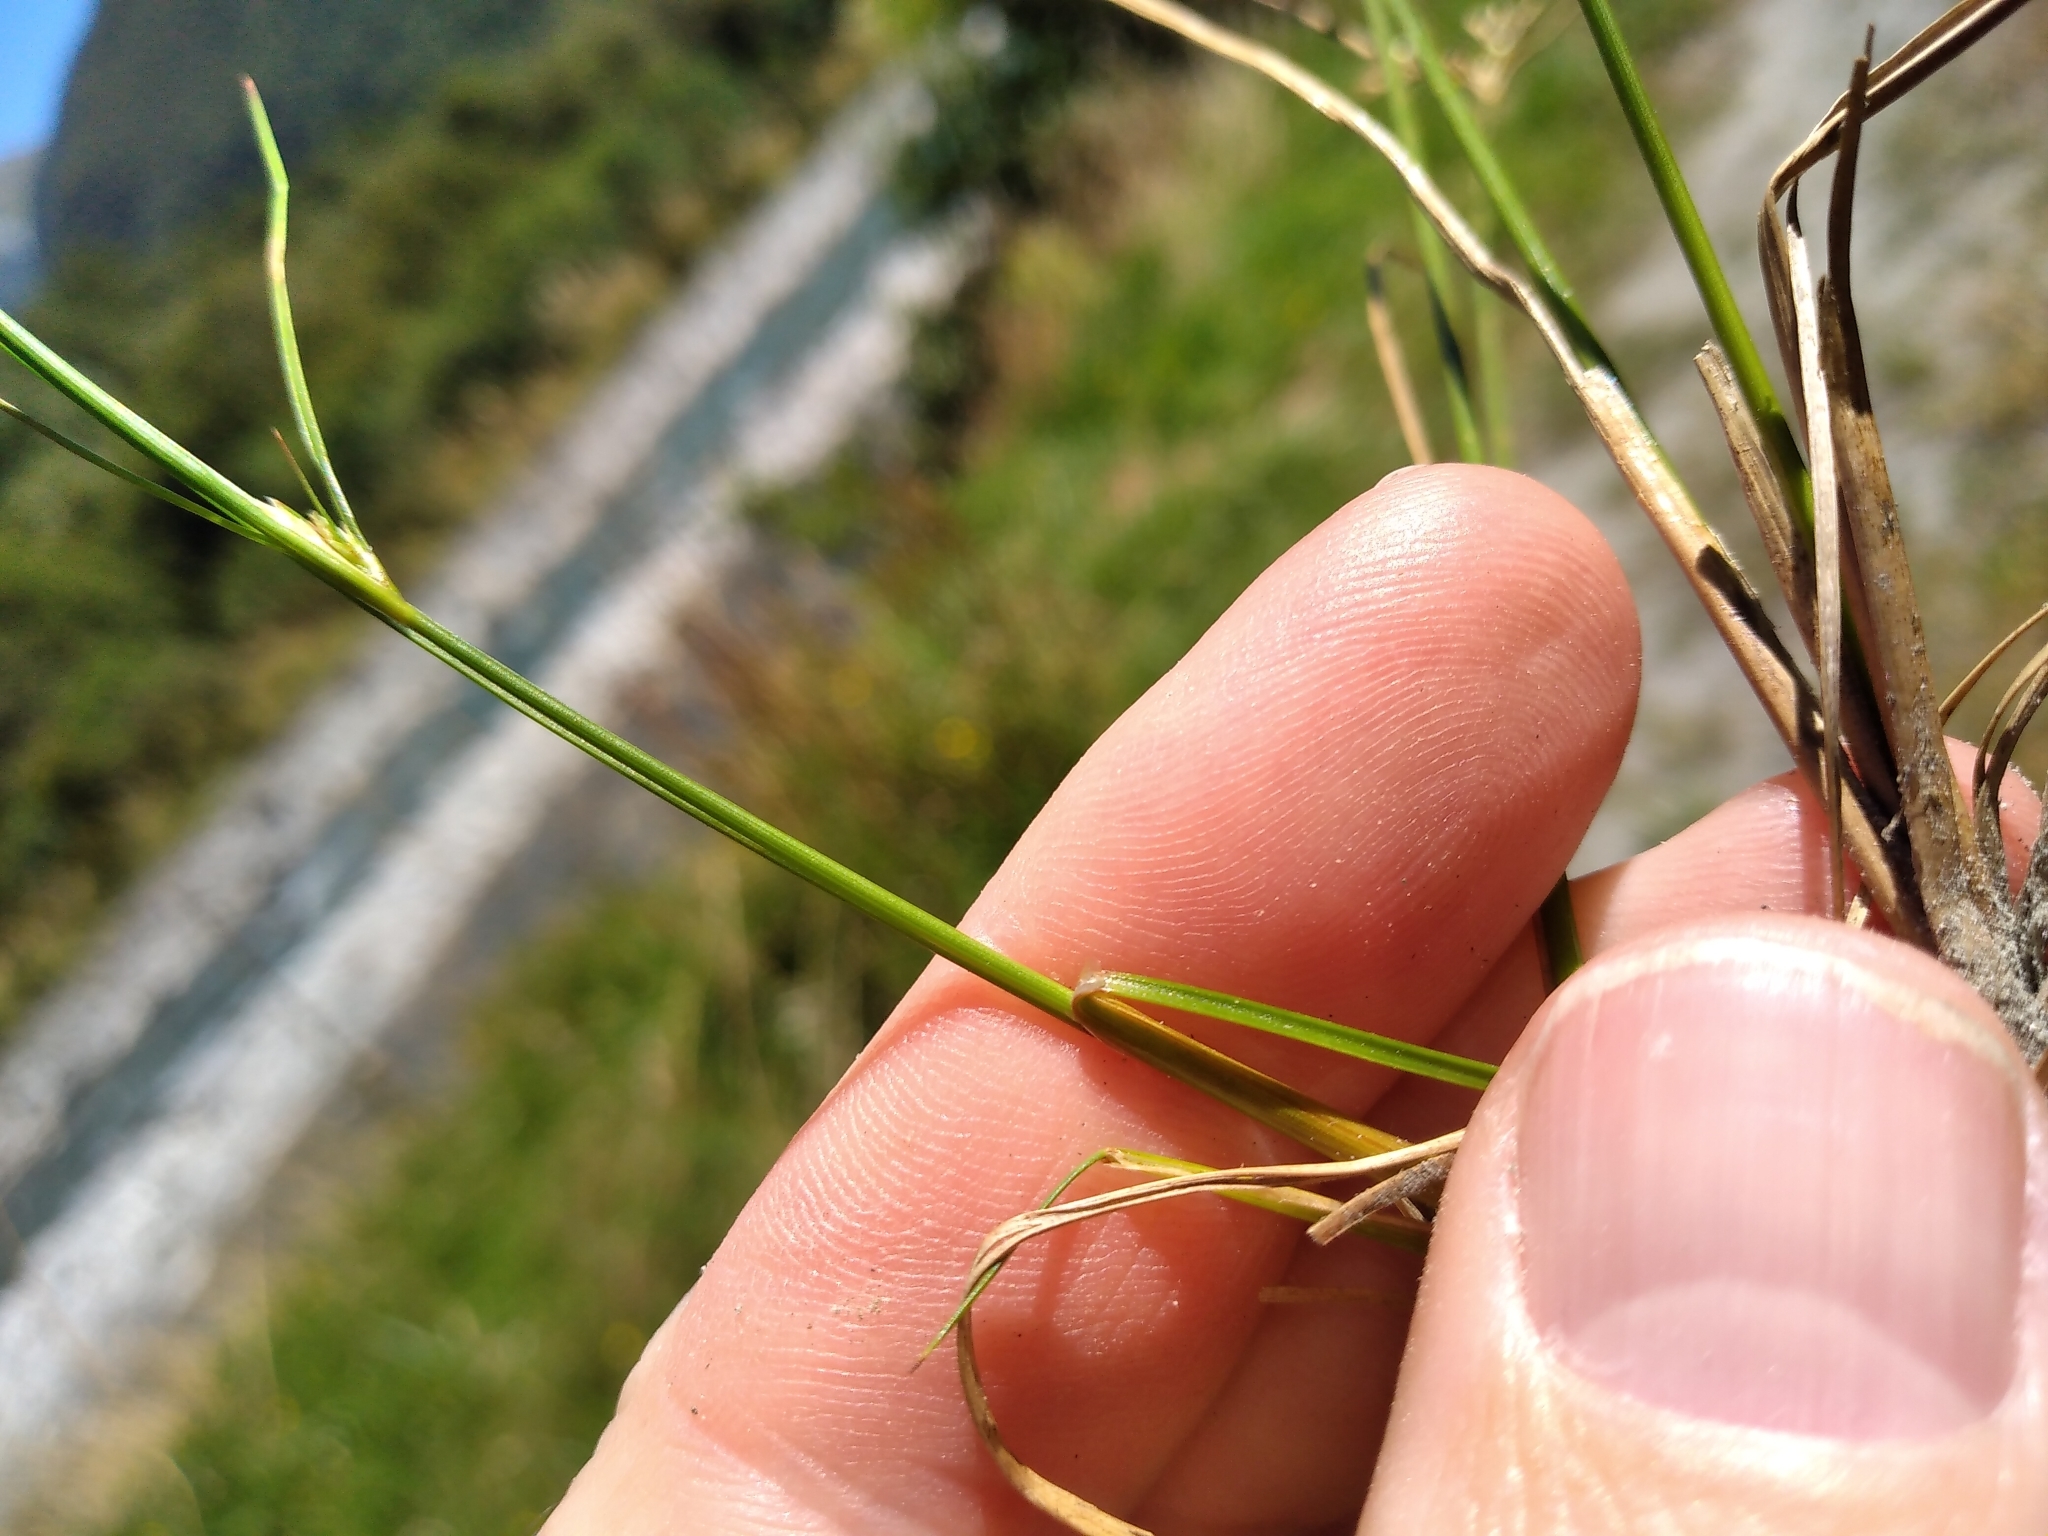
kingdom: Plantae
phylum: Tracheophyta
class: Liliopsida
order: Poales
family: Juncaceae
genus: Juncus
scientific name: Juncus tenuis
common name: Slender rush
